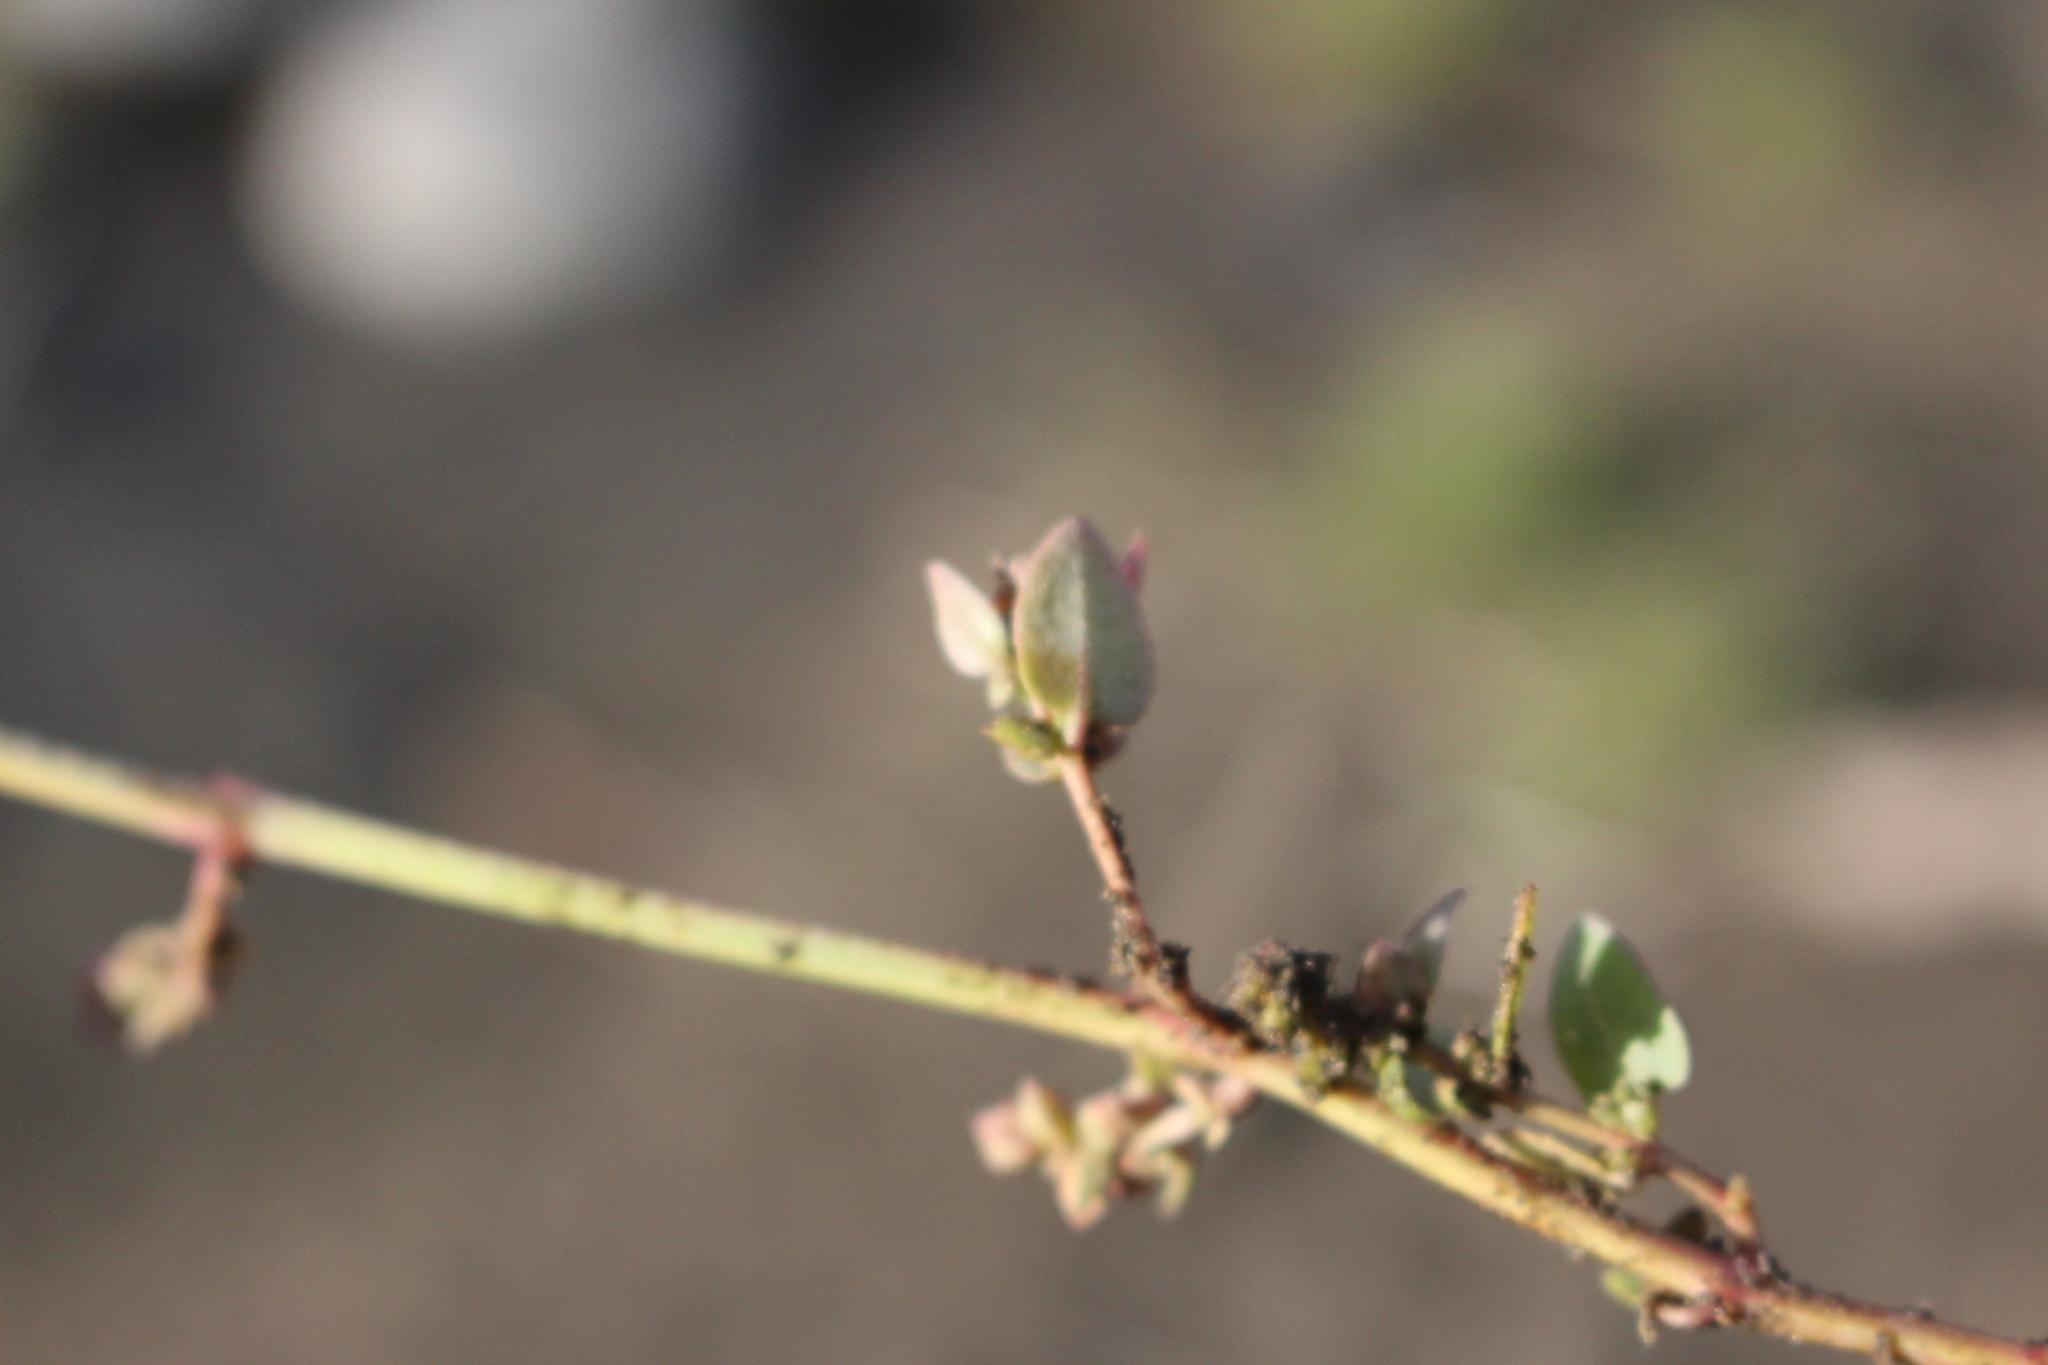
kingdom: Plantae
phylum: Tracheophyta
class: Magnoliopsida
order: Caryophyllales
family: Amaranthaceae
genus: Atriplex
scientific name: Atriplex prostrata
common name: Spear-leaved orache
